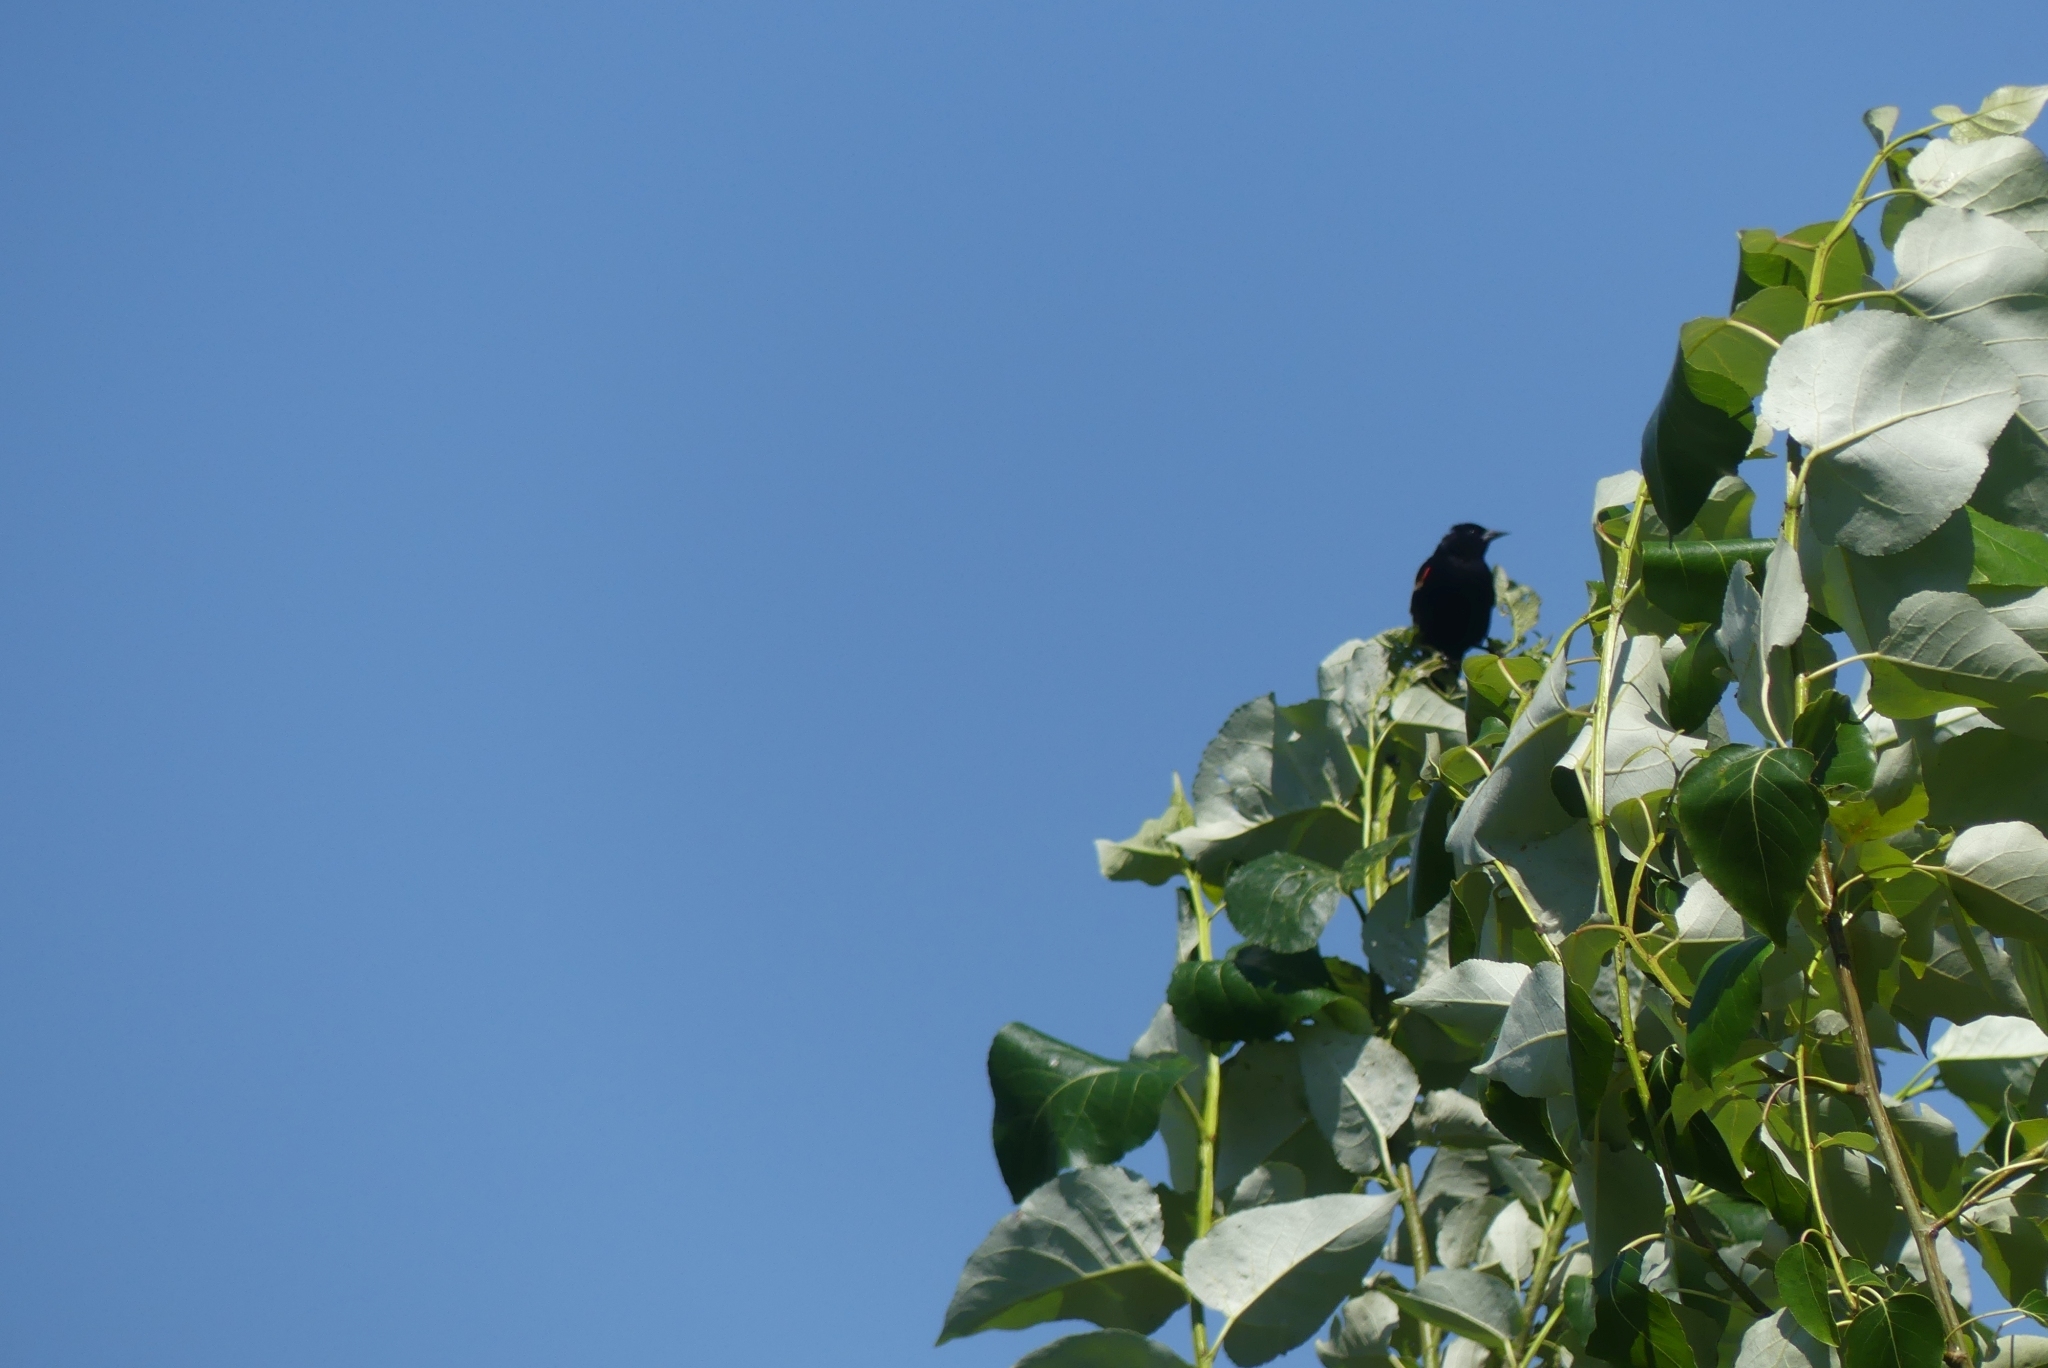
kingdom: Animalia
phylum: Chordata
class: Aves
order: Passeriformes
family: Icteridae
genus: Agelaius
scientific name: Agelaius phoeniceus
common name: Red-winged blackbird
